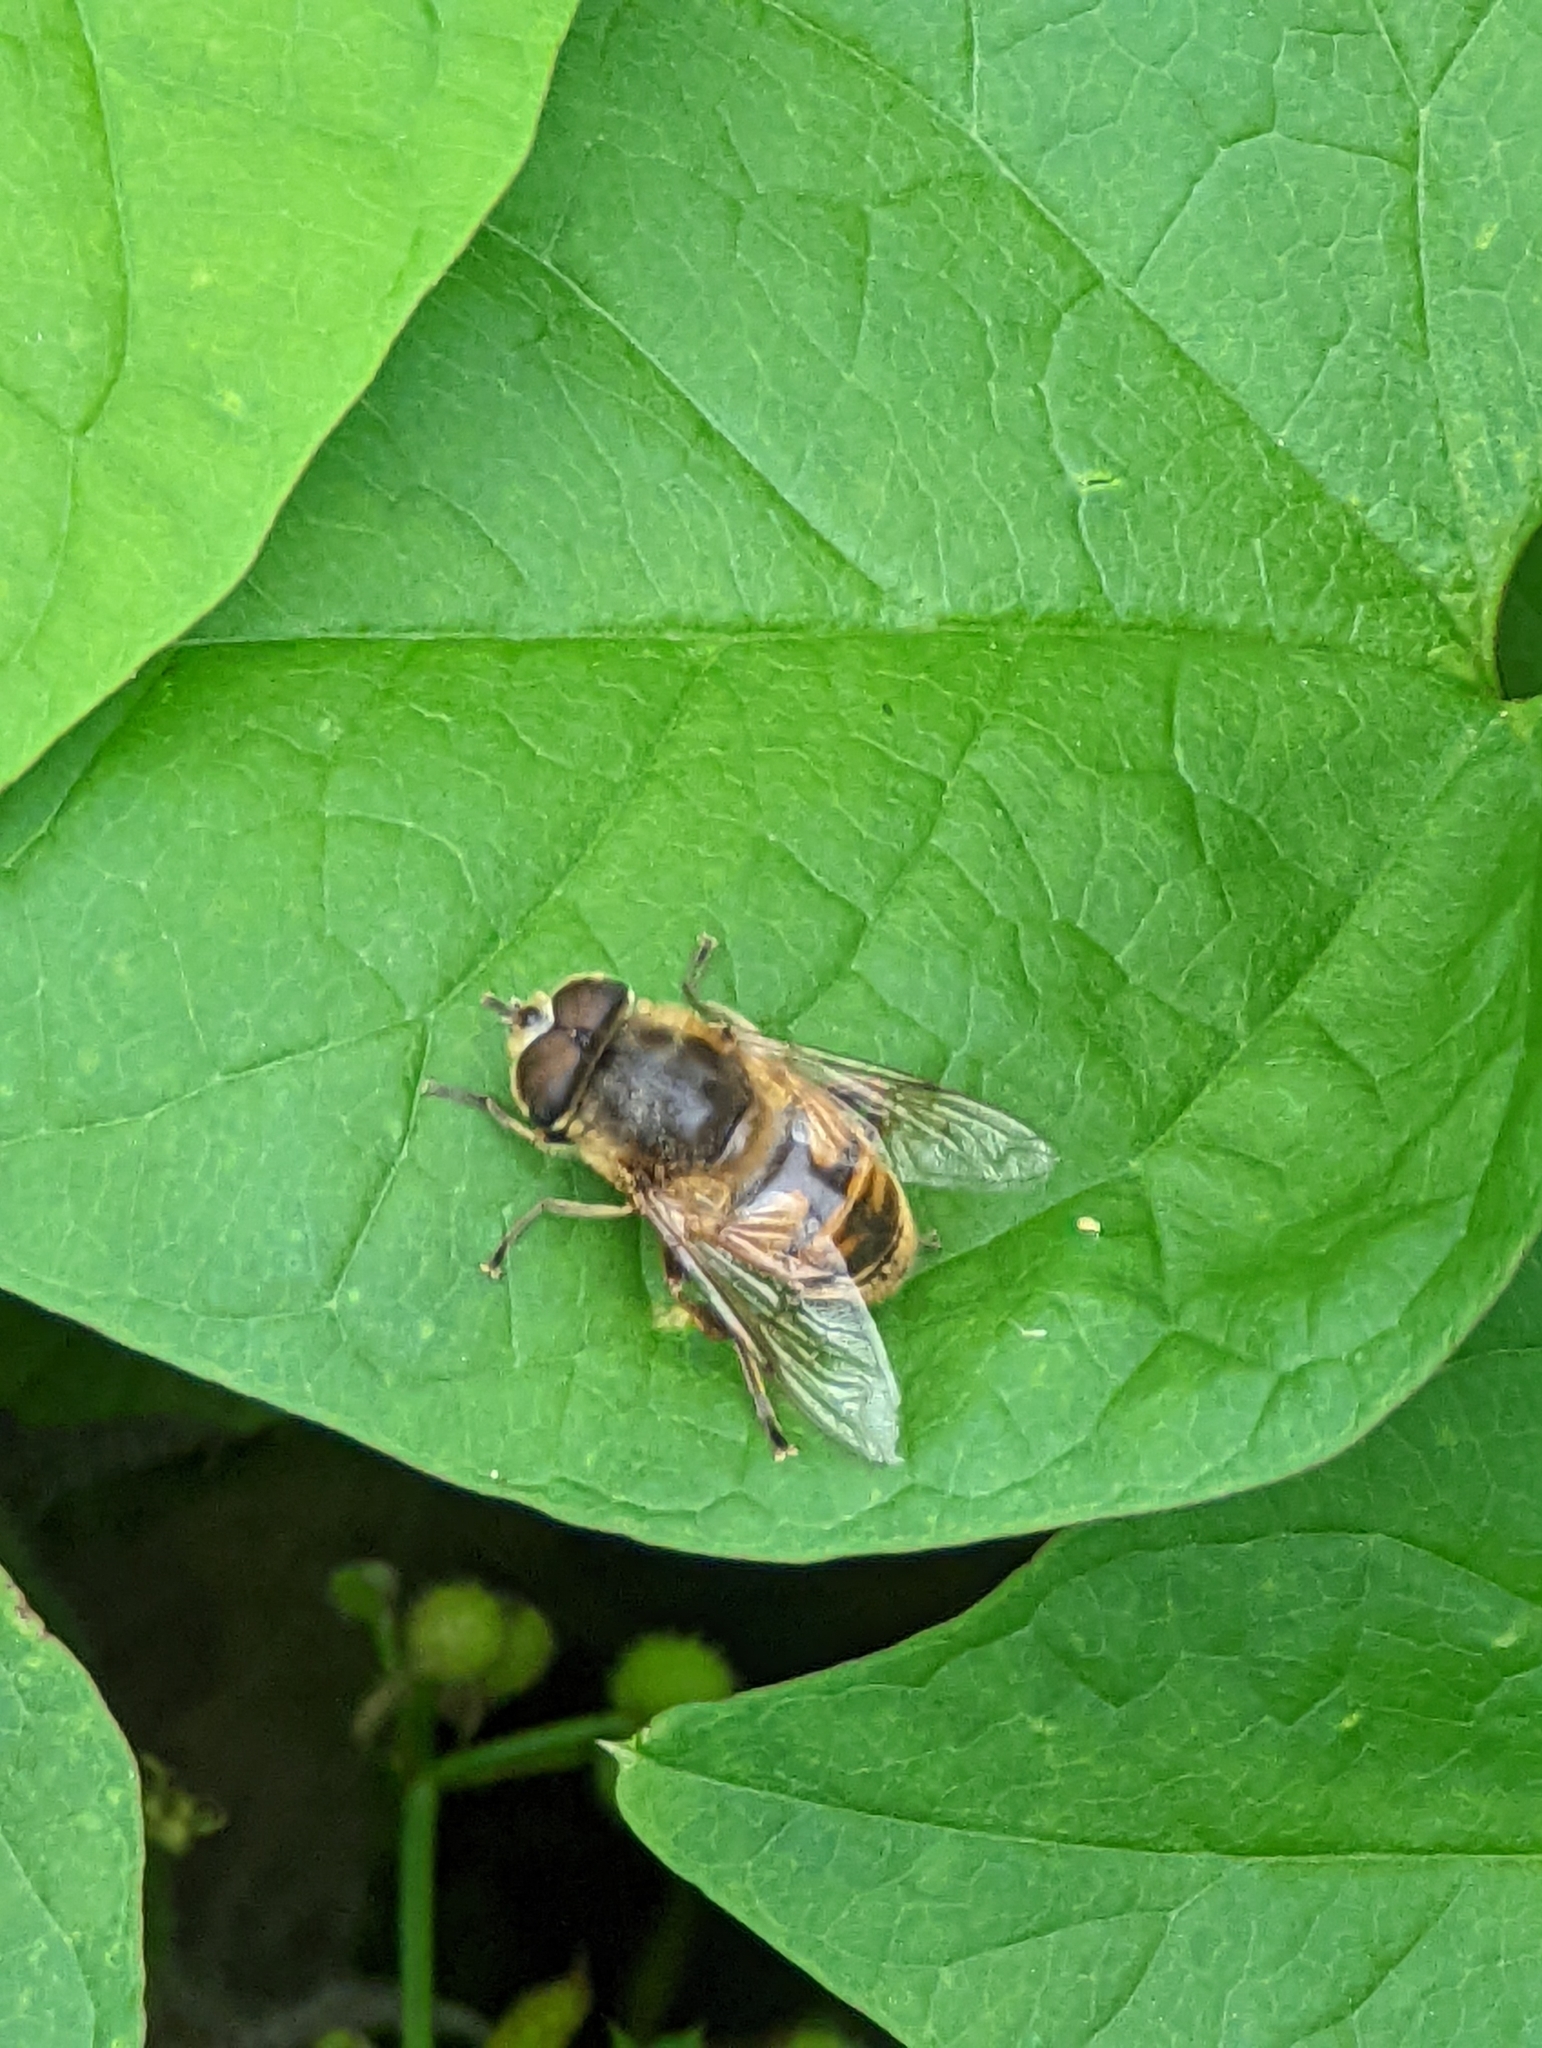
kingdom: Animalia
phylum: Arthropoda
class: Insecta
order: Diptera
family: Syrphidae
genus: Eristalis
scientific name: Eristalis tenax
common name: Drone fly
